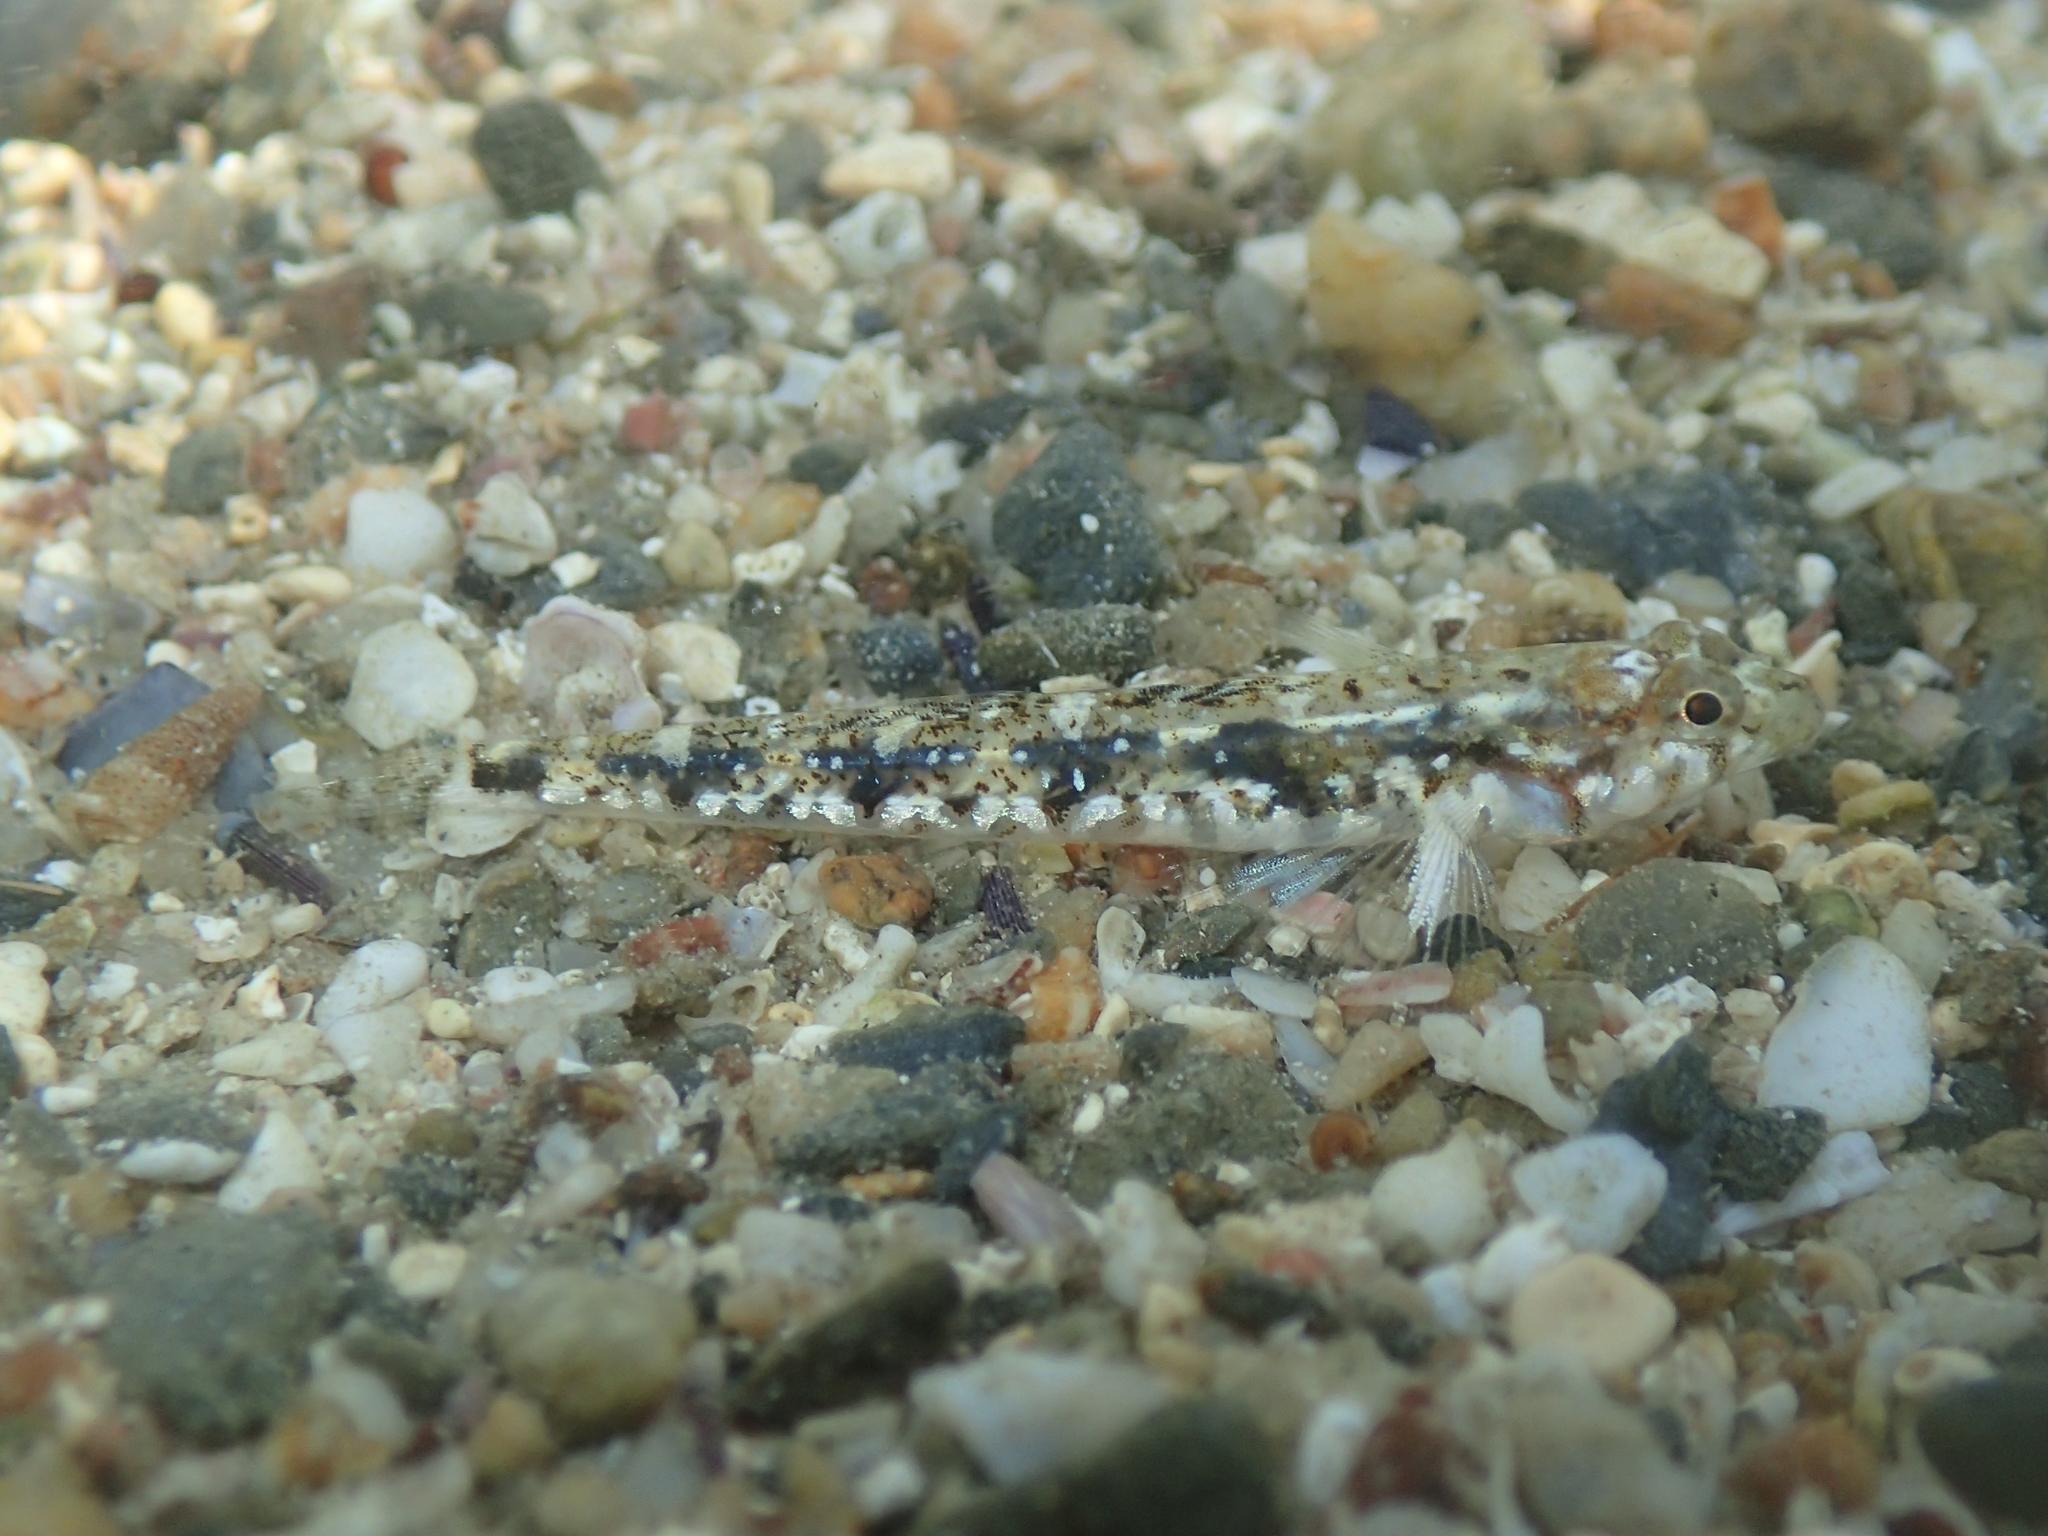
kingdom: Animalia
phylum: Chordata
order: Perciformes
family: Gobiidae
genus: Pomatoschistus
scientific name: Pomatoschistus bathi
